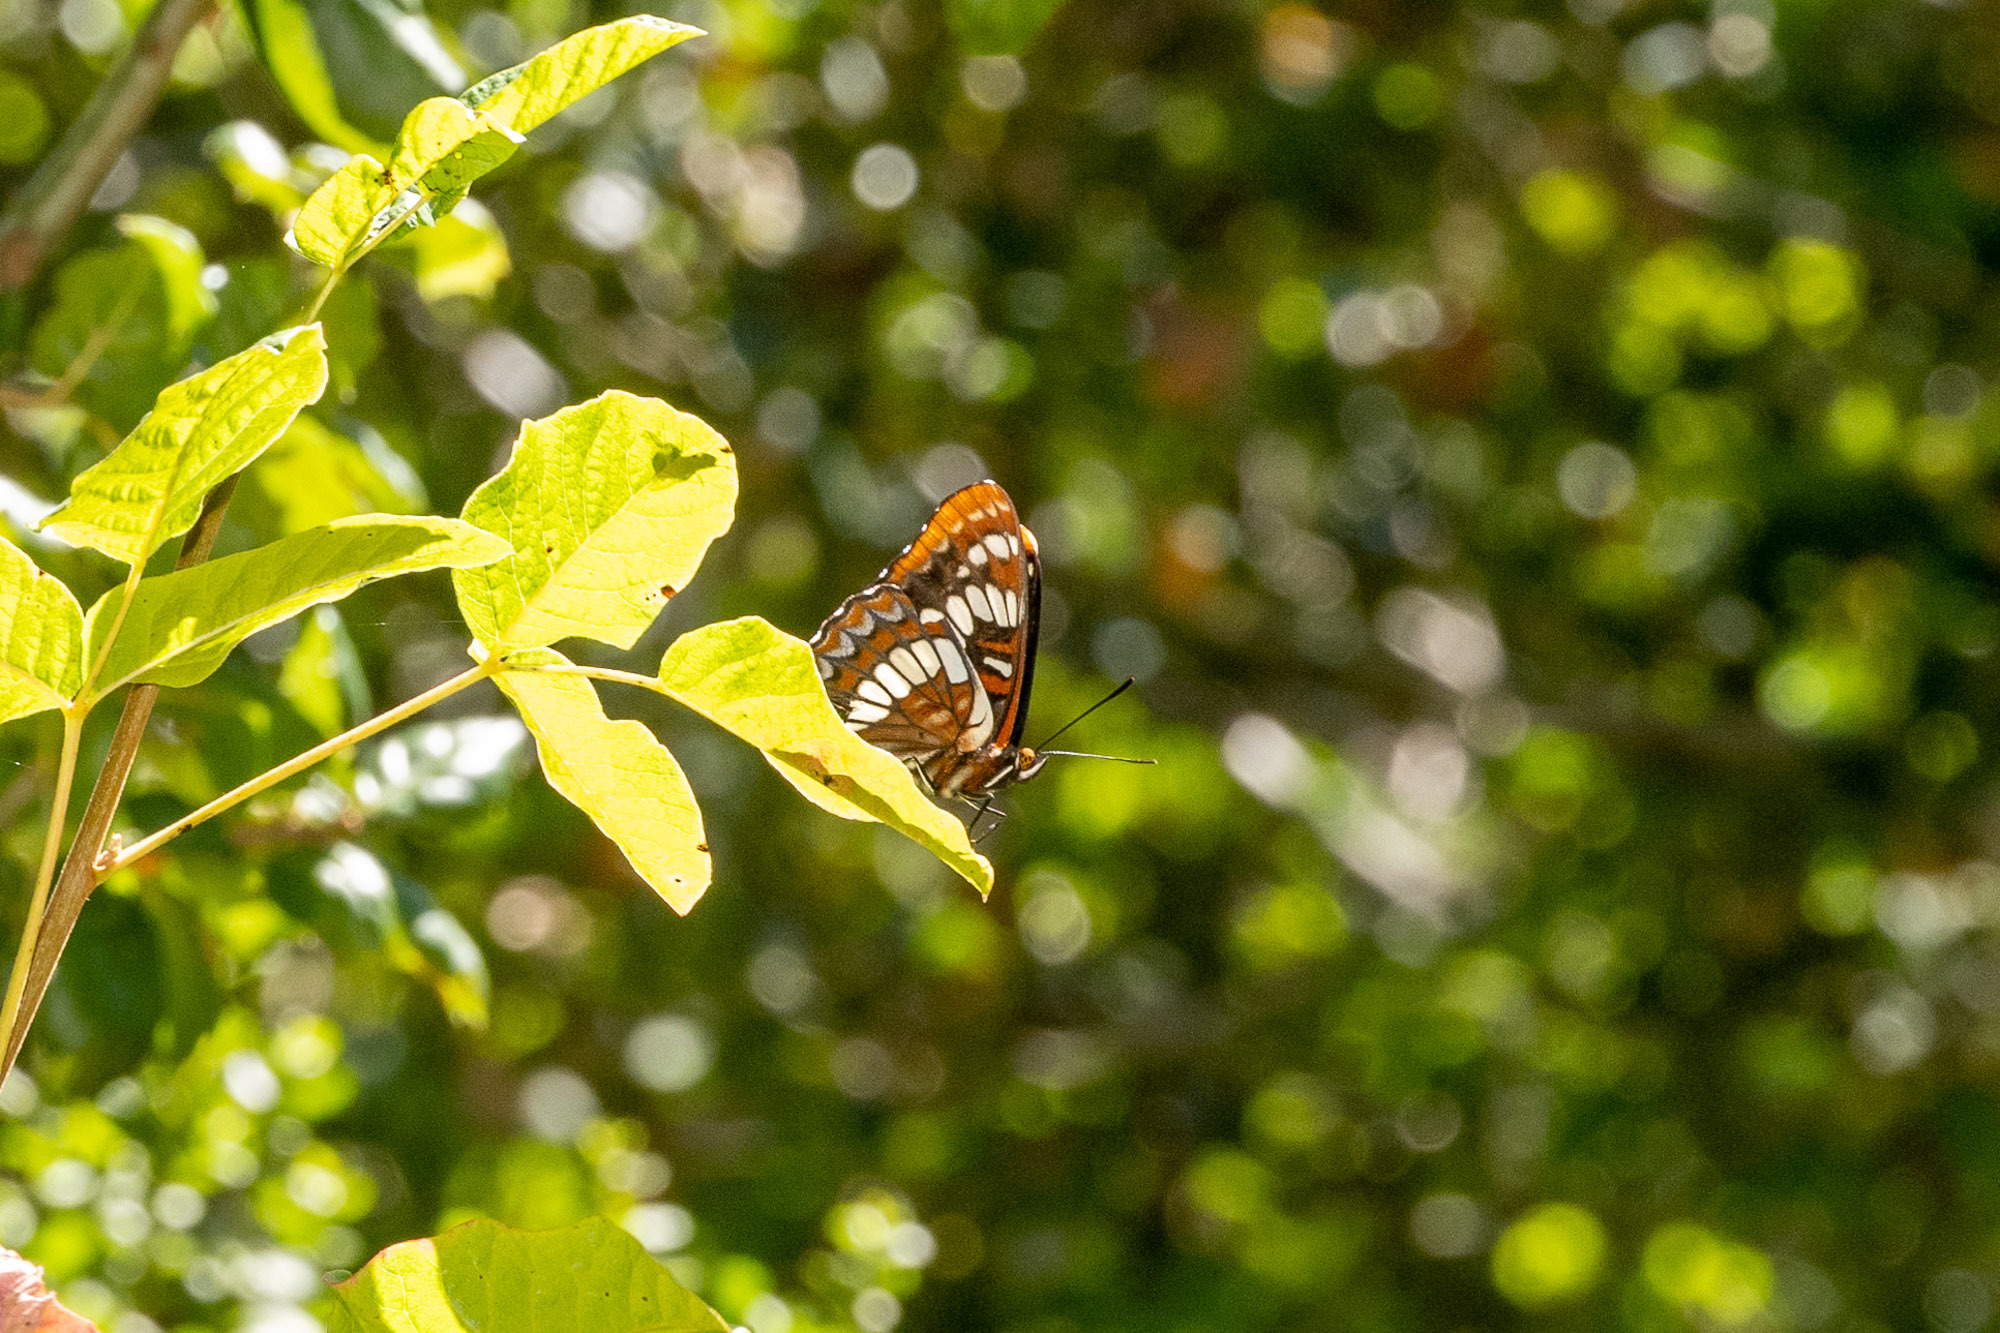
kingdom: Animalia
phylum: Arthropoda
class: Insecta
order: Lepidoptera
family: Nymphalidae
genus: Limenitis
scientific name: Limenitis lorquini
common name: Lorquin's admiral
